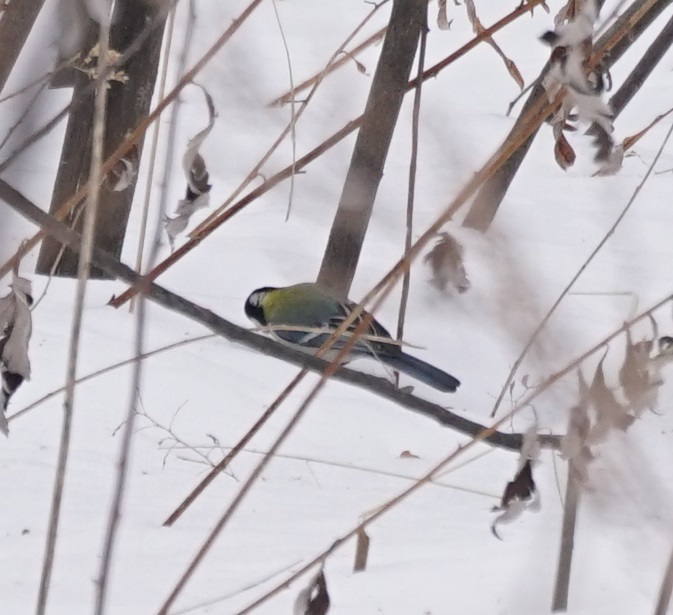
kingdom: Animalia
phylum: Chordata
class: Aves
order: Passeriformes
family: Paridae
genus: Parus
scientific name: Parus minor
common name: Japanese tit
